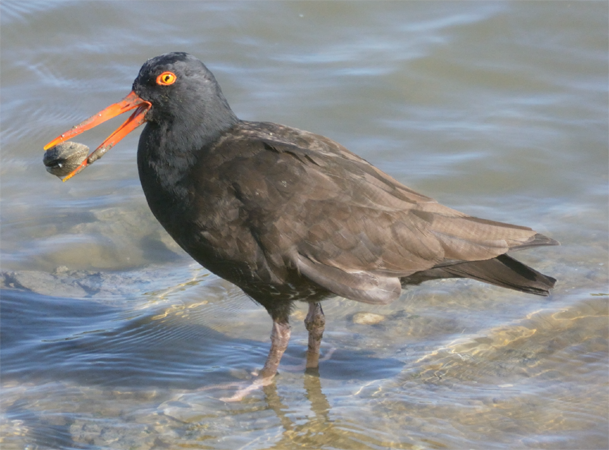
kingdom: Animalia
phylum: Chordata
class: Aves
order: Charadriiformes
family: Haematopodidae
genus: Haematopus
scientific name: Haematopus bachmani
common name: Black oystercatcher
